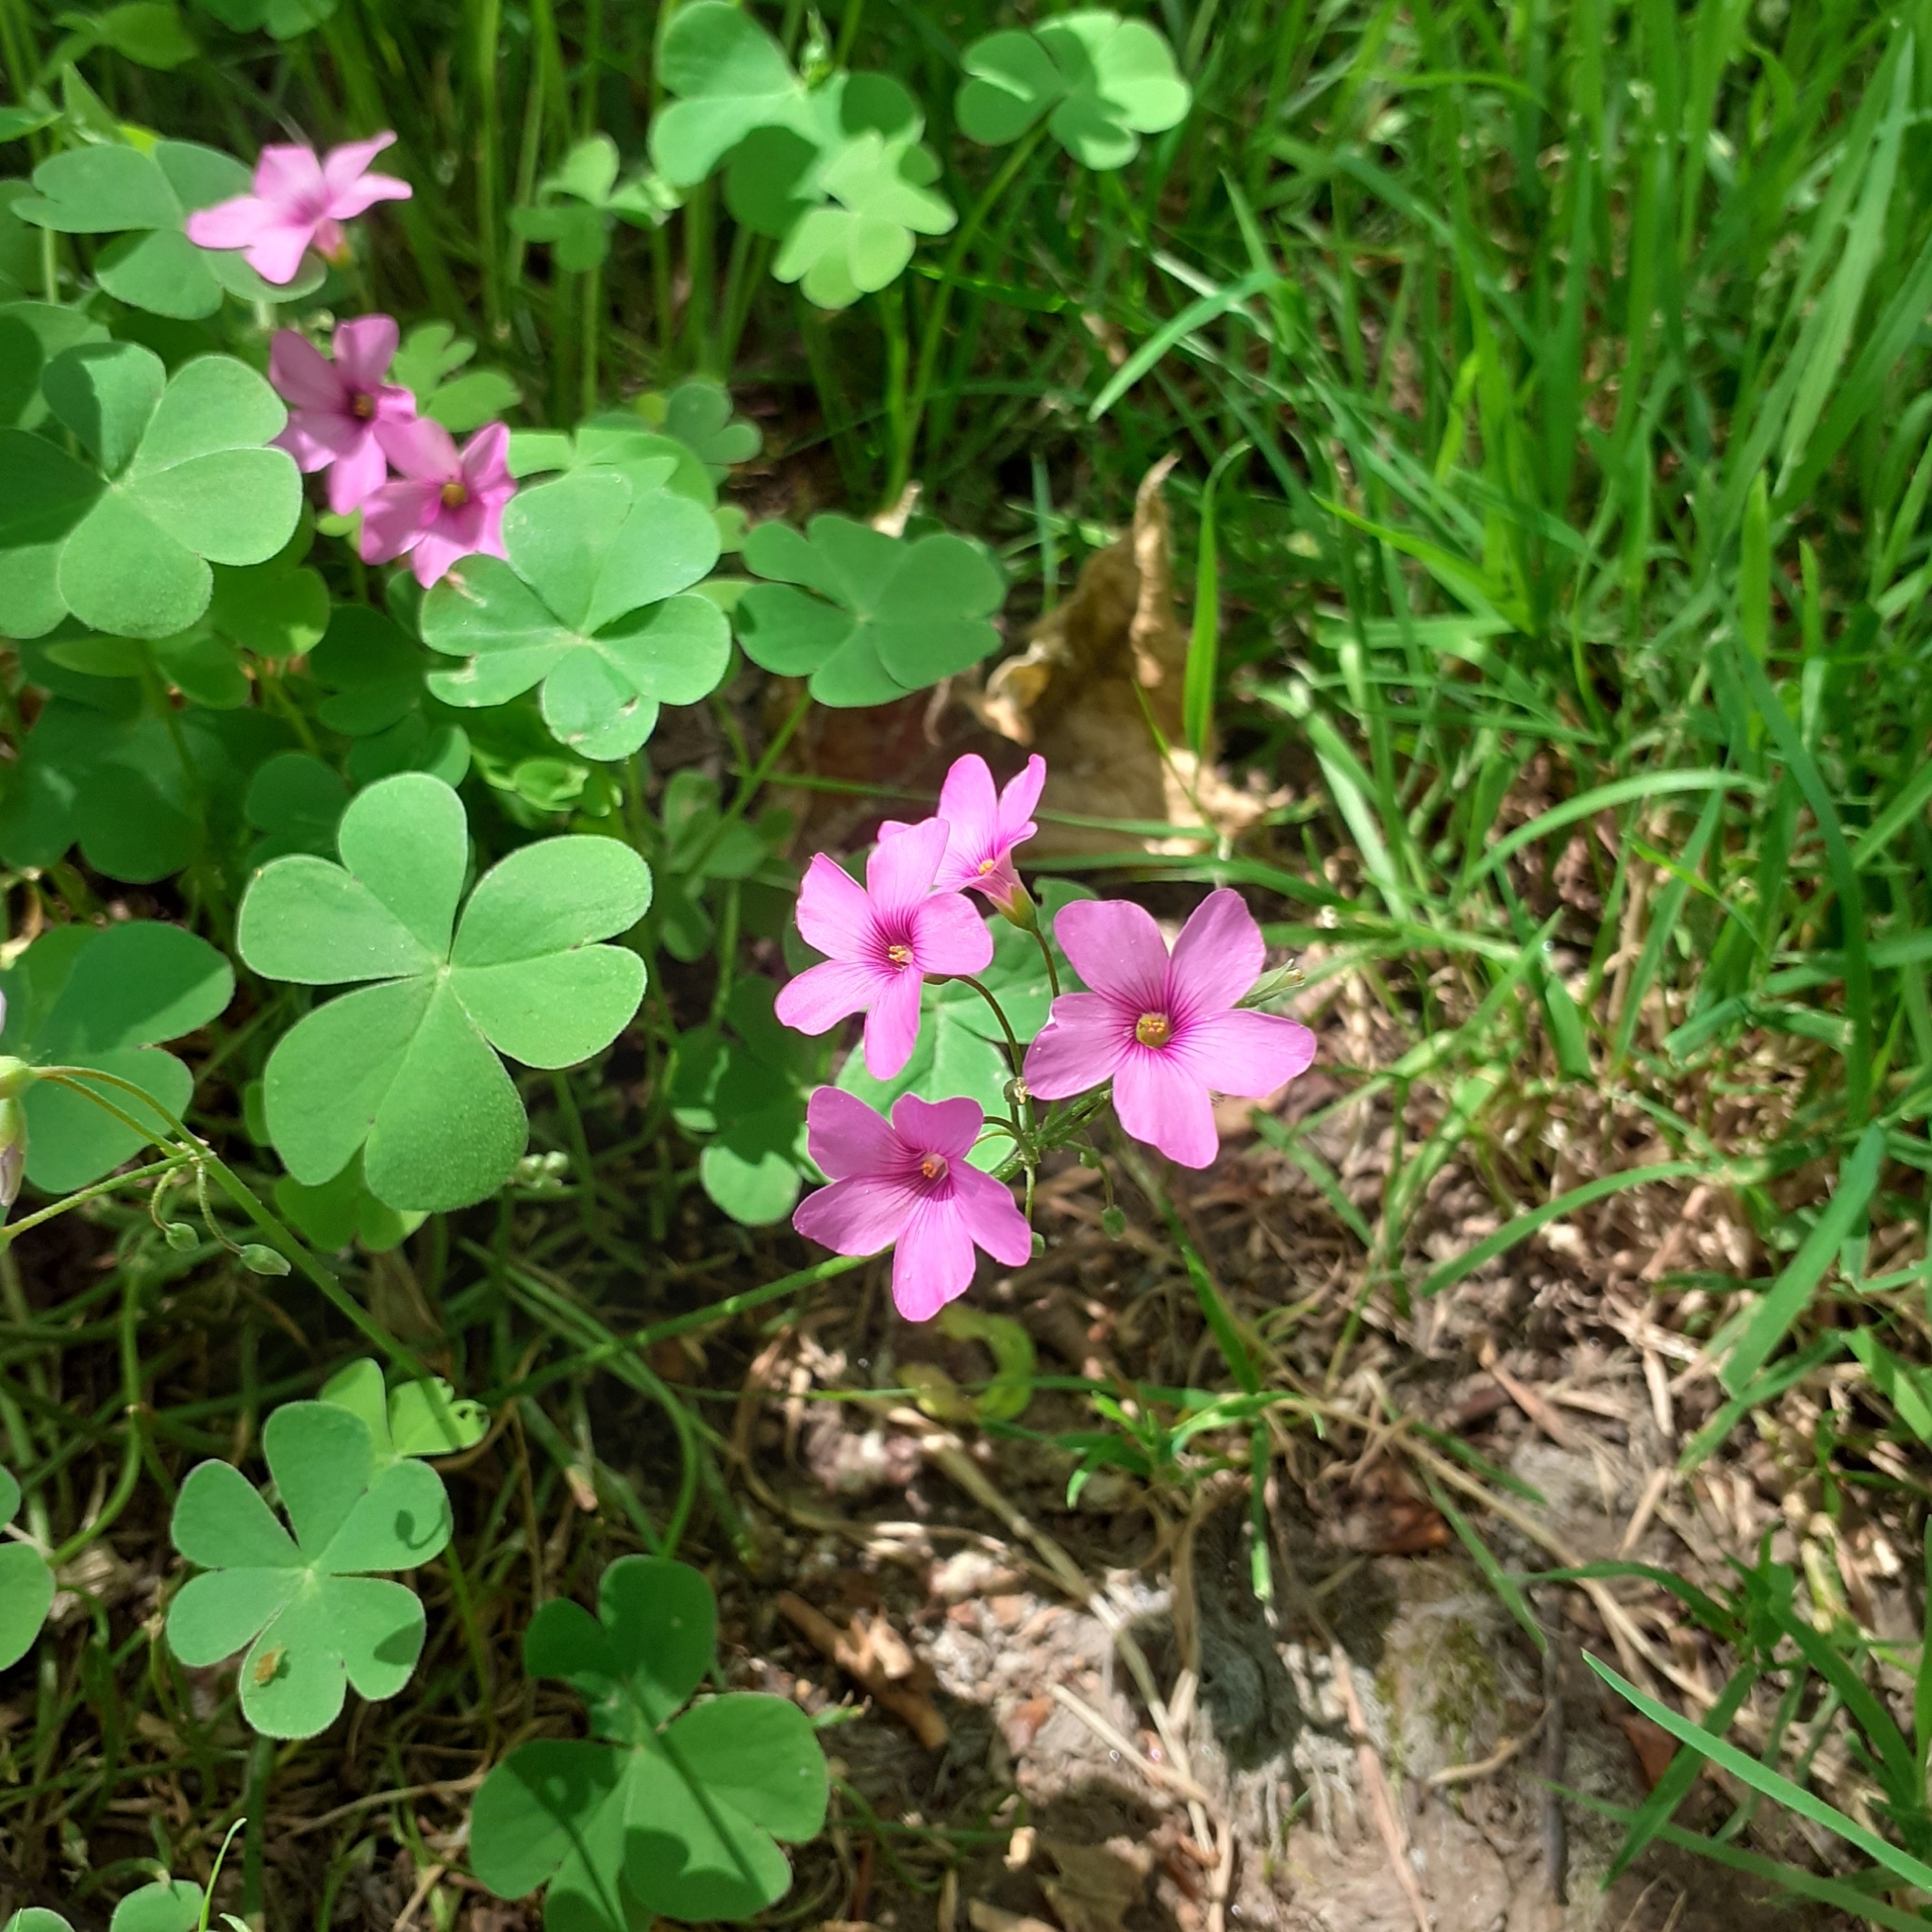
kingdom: Plantae
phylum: Tracheophyta
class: Magnoliopsida
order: Oxalidales
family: Oxalidaceae
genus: Oxalis
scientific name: Oxalis articulata
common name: Pink-sorrel
